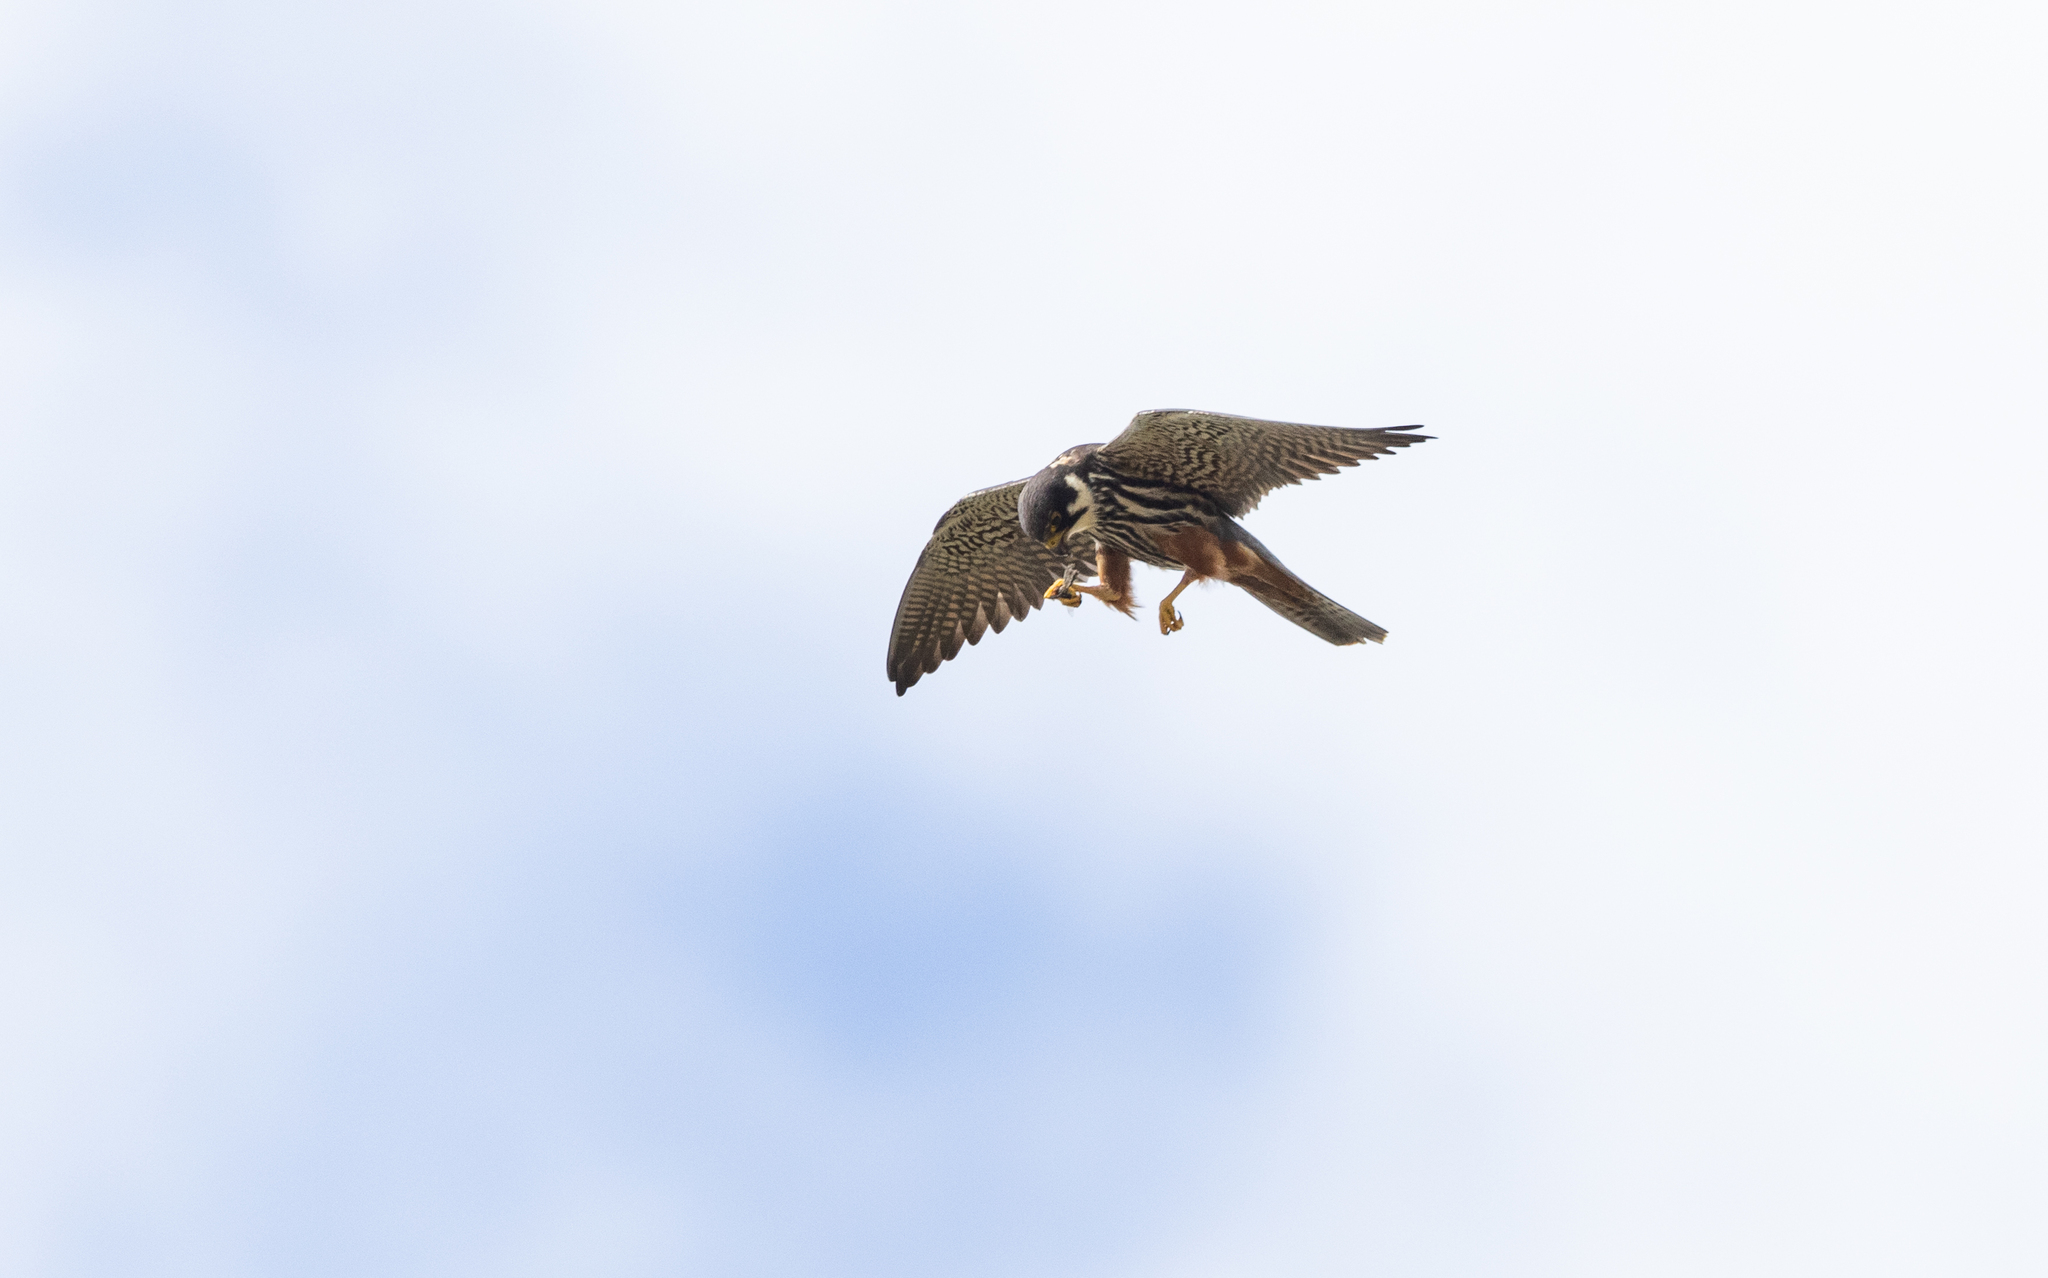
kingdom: Animalia
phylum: Chordata
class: Aves
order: Falconiformes
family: Falconidae
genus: Falco
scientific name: Falco subbuteo
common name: Eurasian hobby
